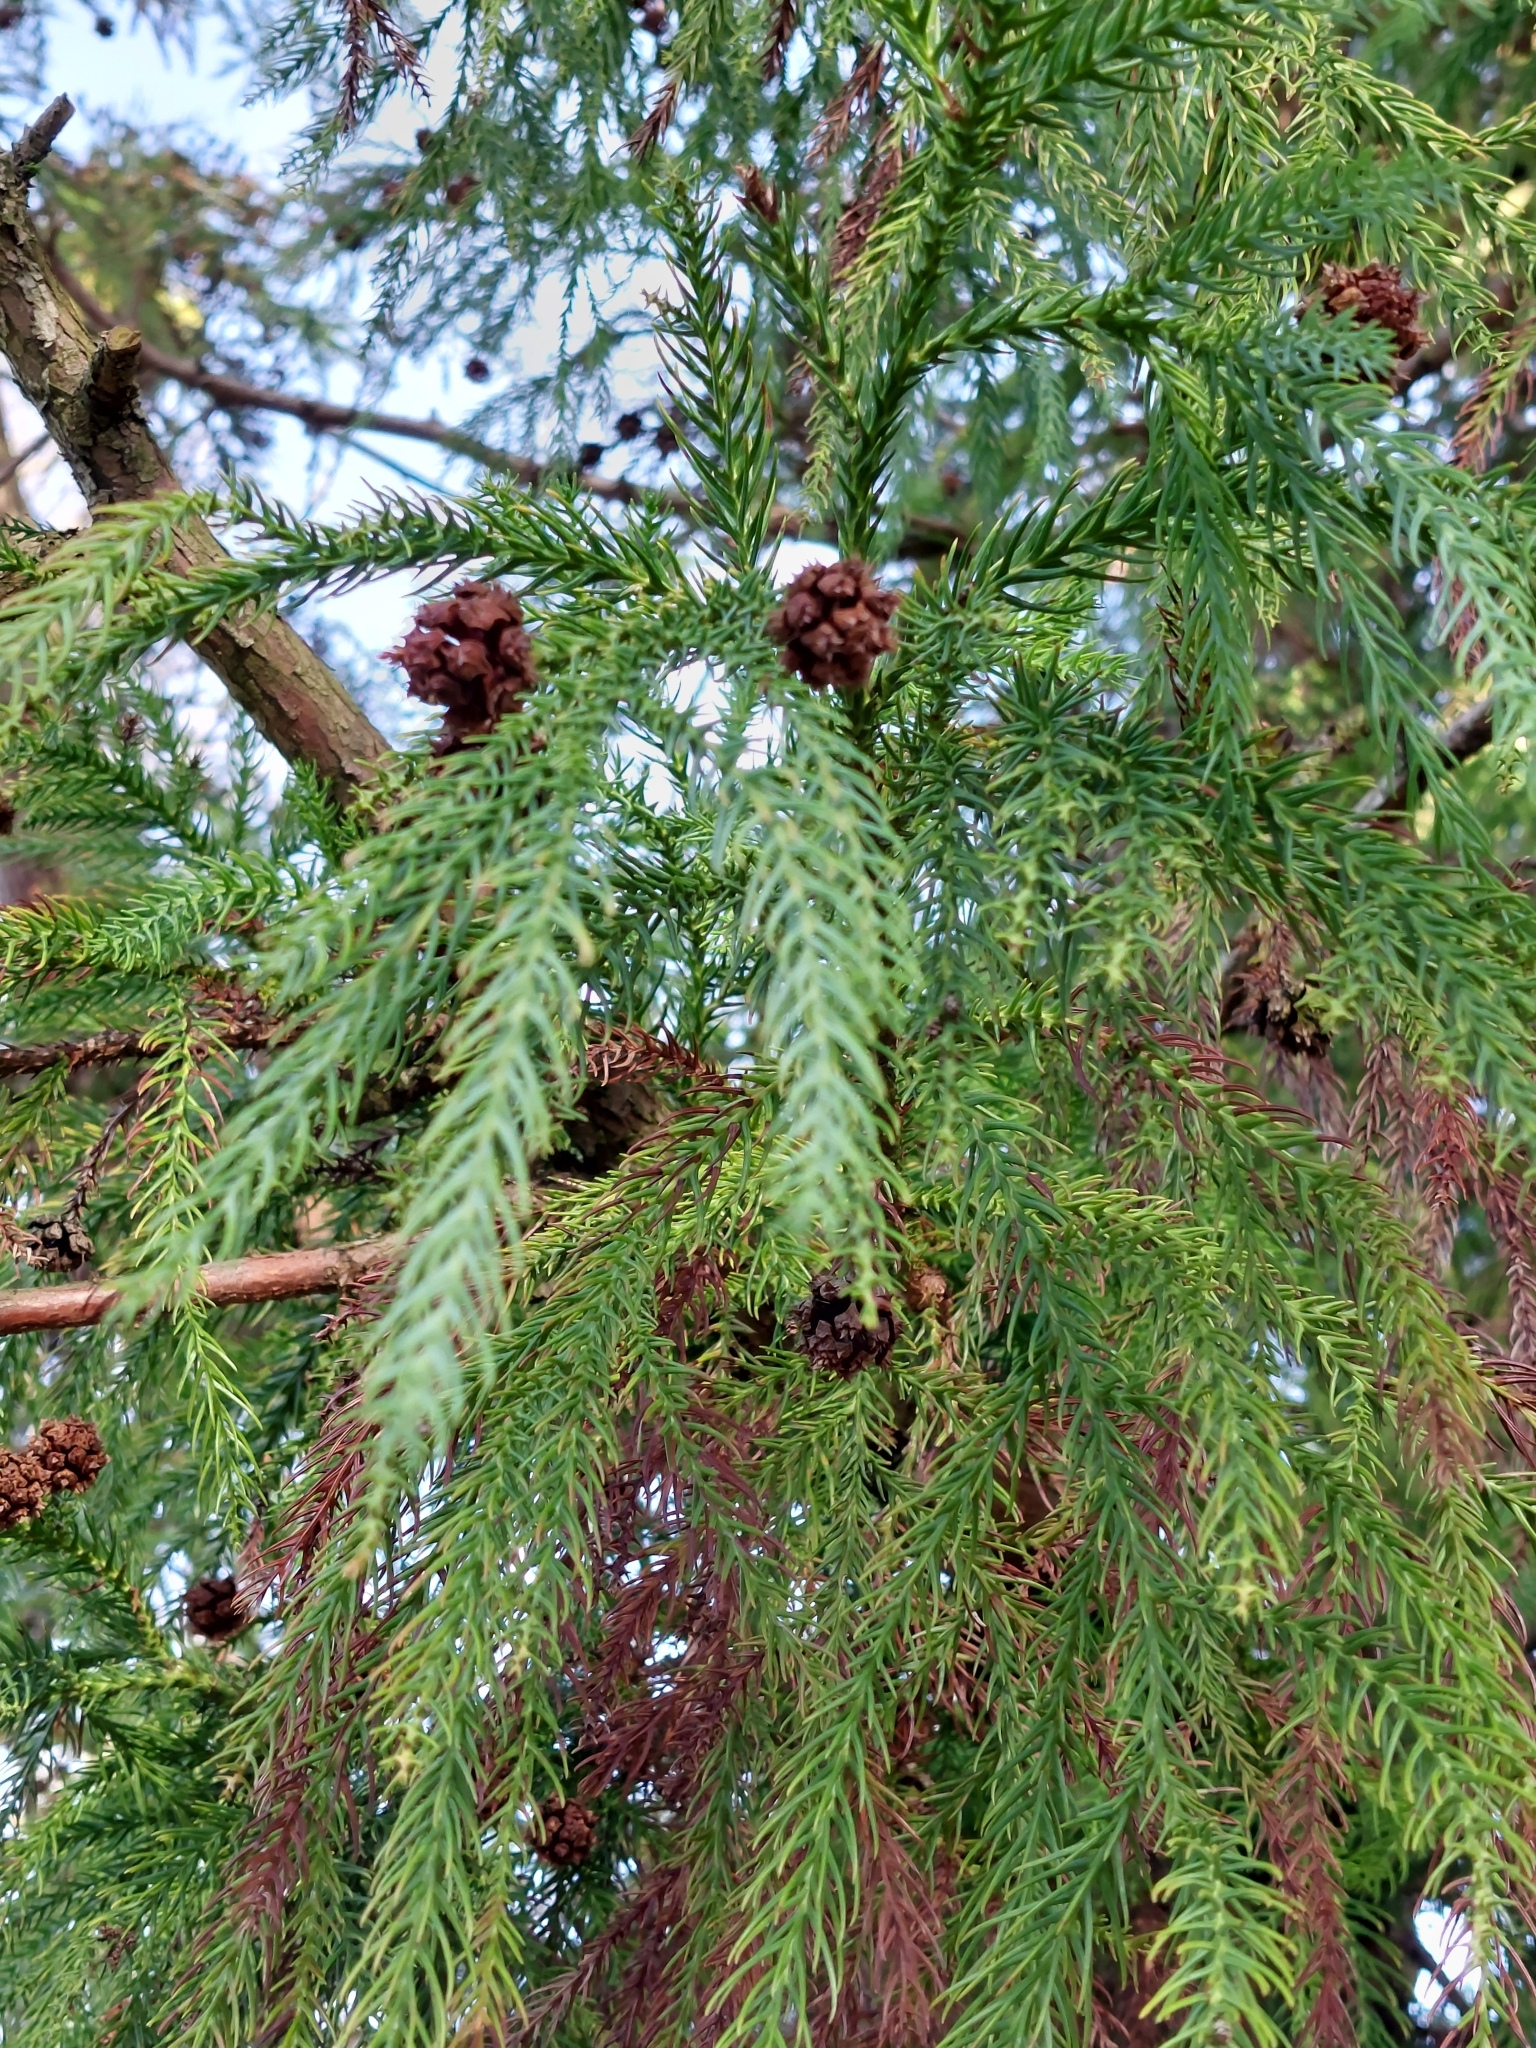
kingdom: Plantae
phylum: Tracheophyta
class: Pinopsida
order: Pinales
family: Cupressaceae
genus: Cryptomeria
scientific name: Cryptomeria japonica
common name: Japanese cedar
